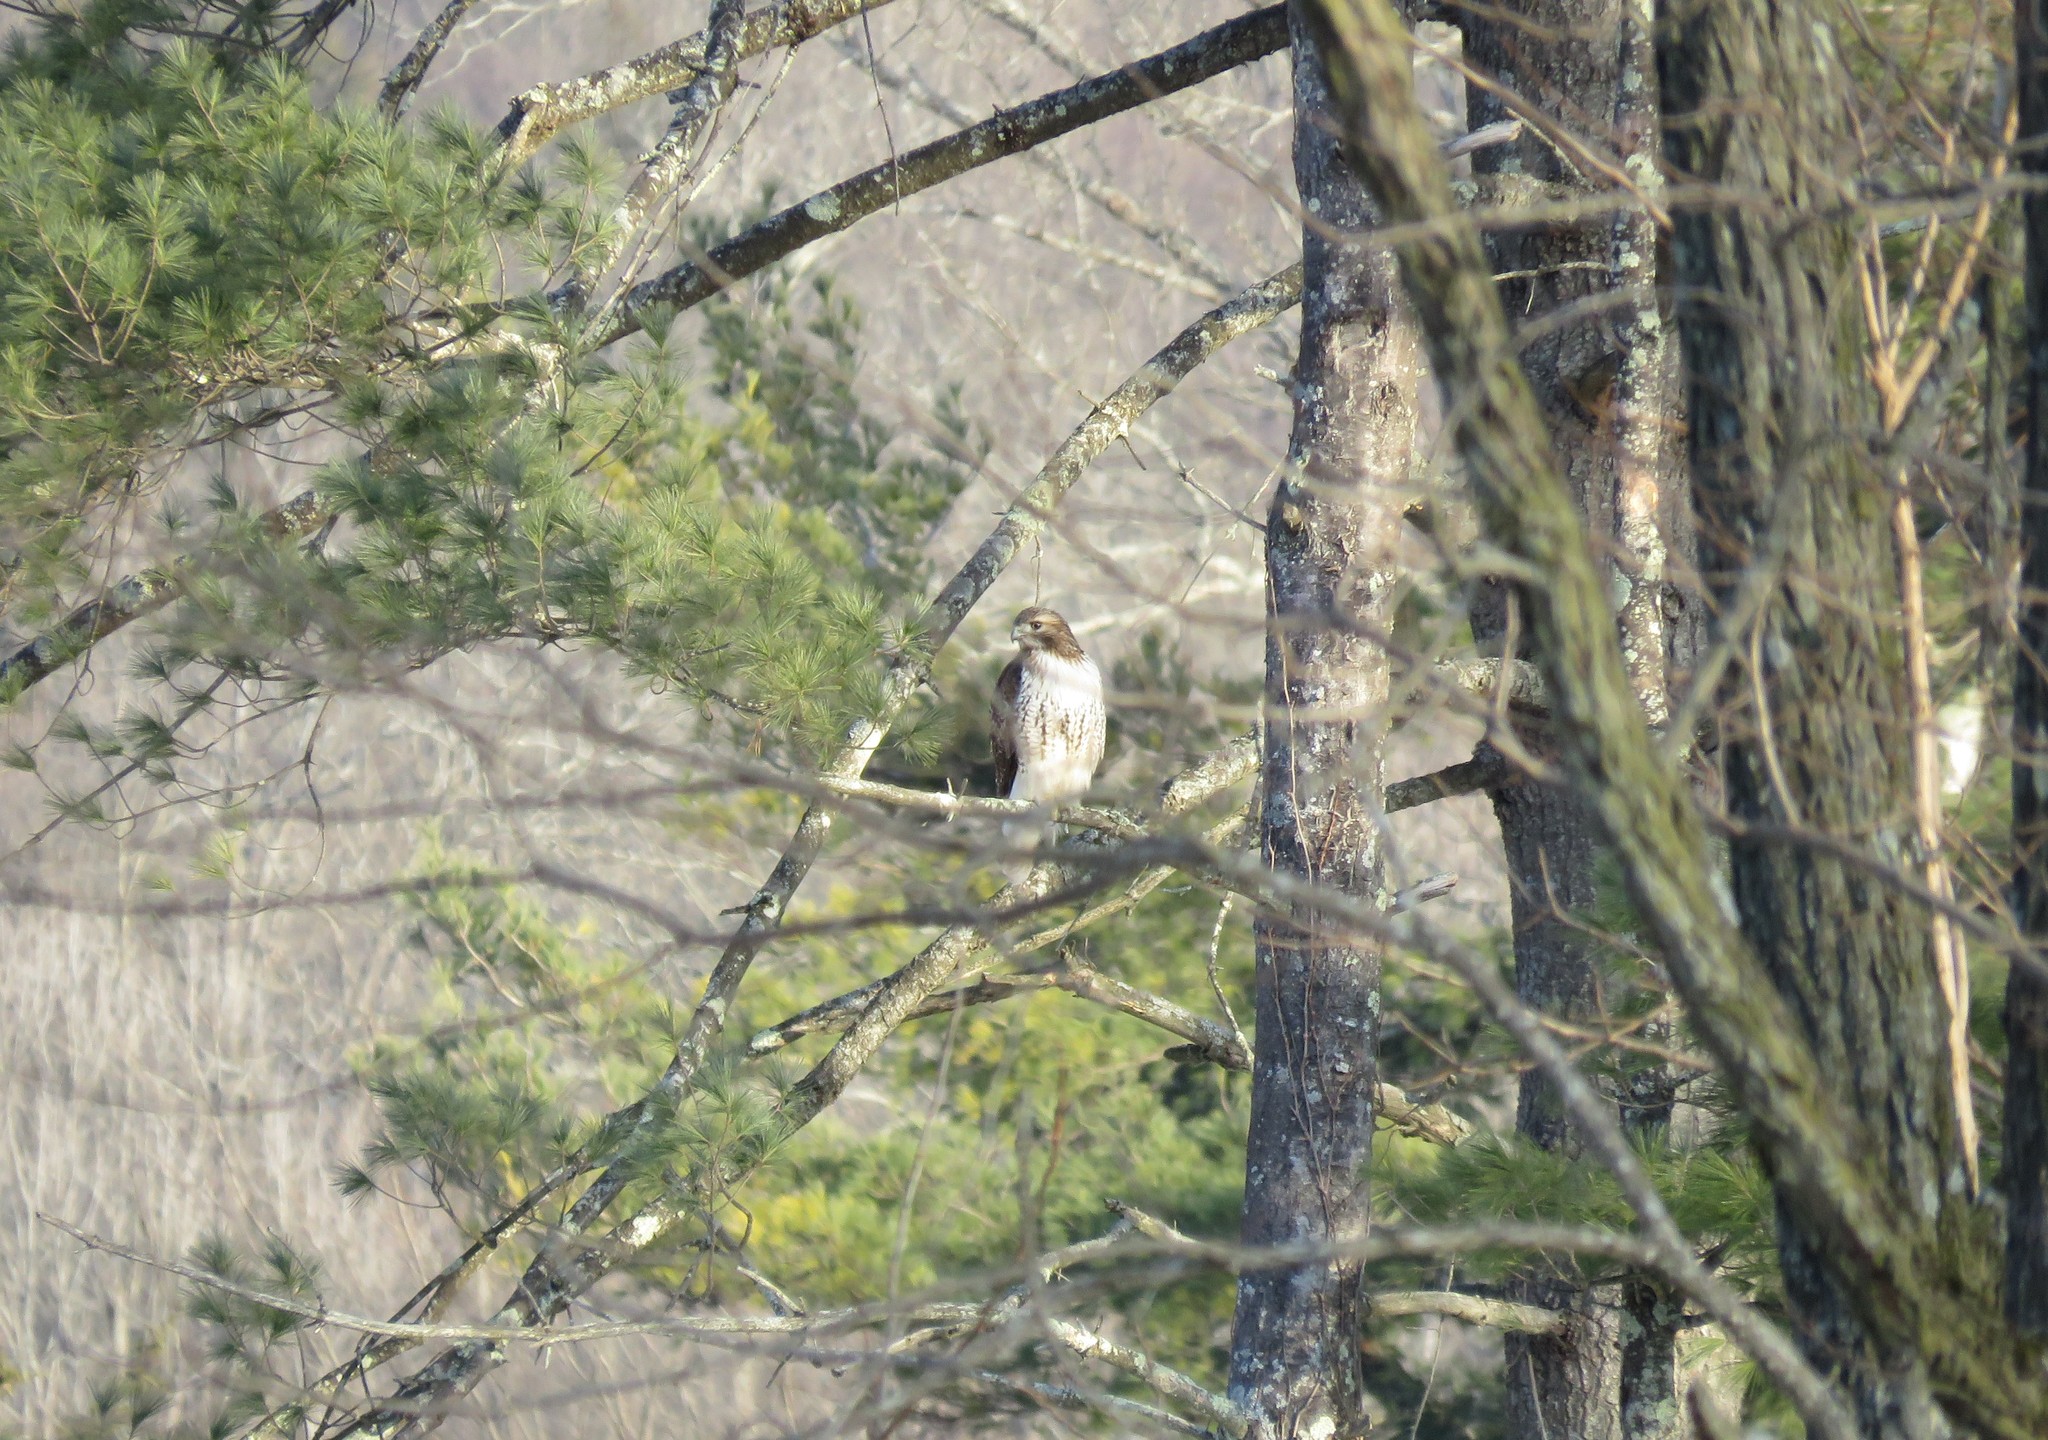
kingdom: Animalia
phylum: Chordata
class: Aves
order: Accipitriformes
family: Accipitridae
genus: Buteo
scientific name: Buteo jamaicensis
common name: Red-tailed hawk
